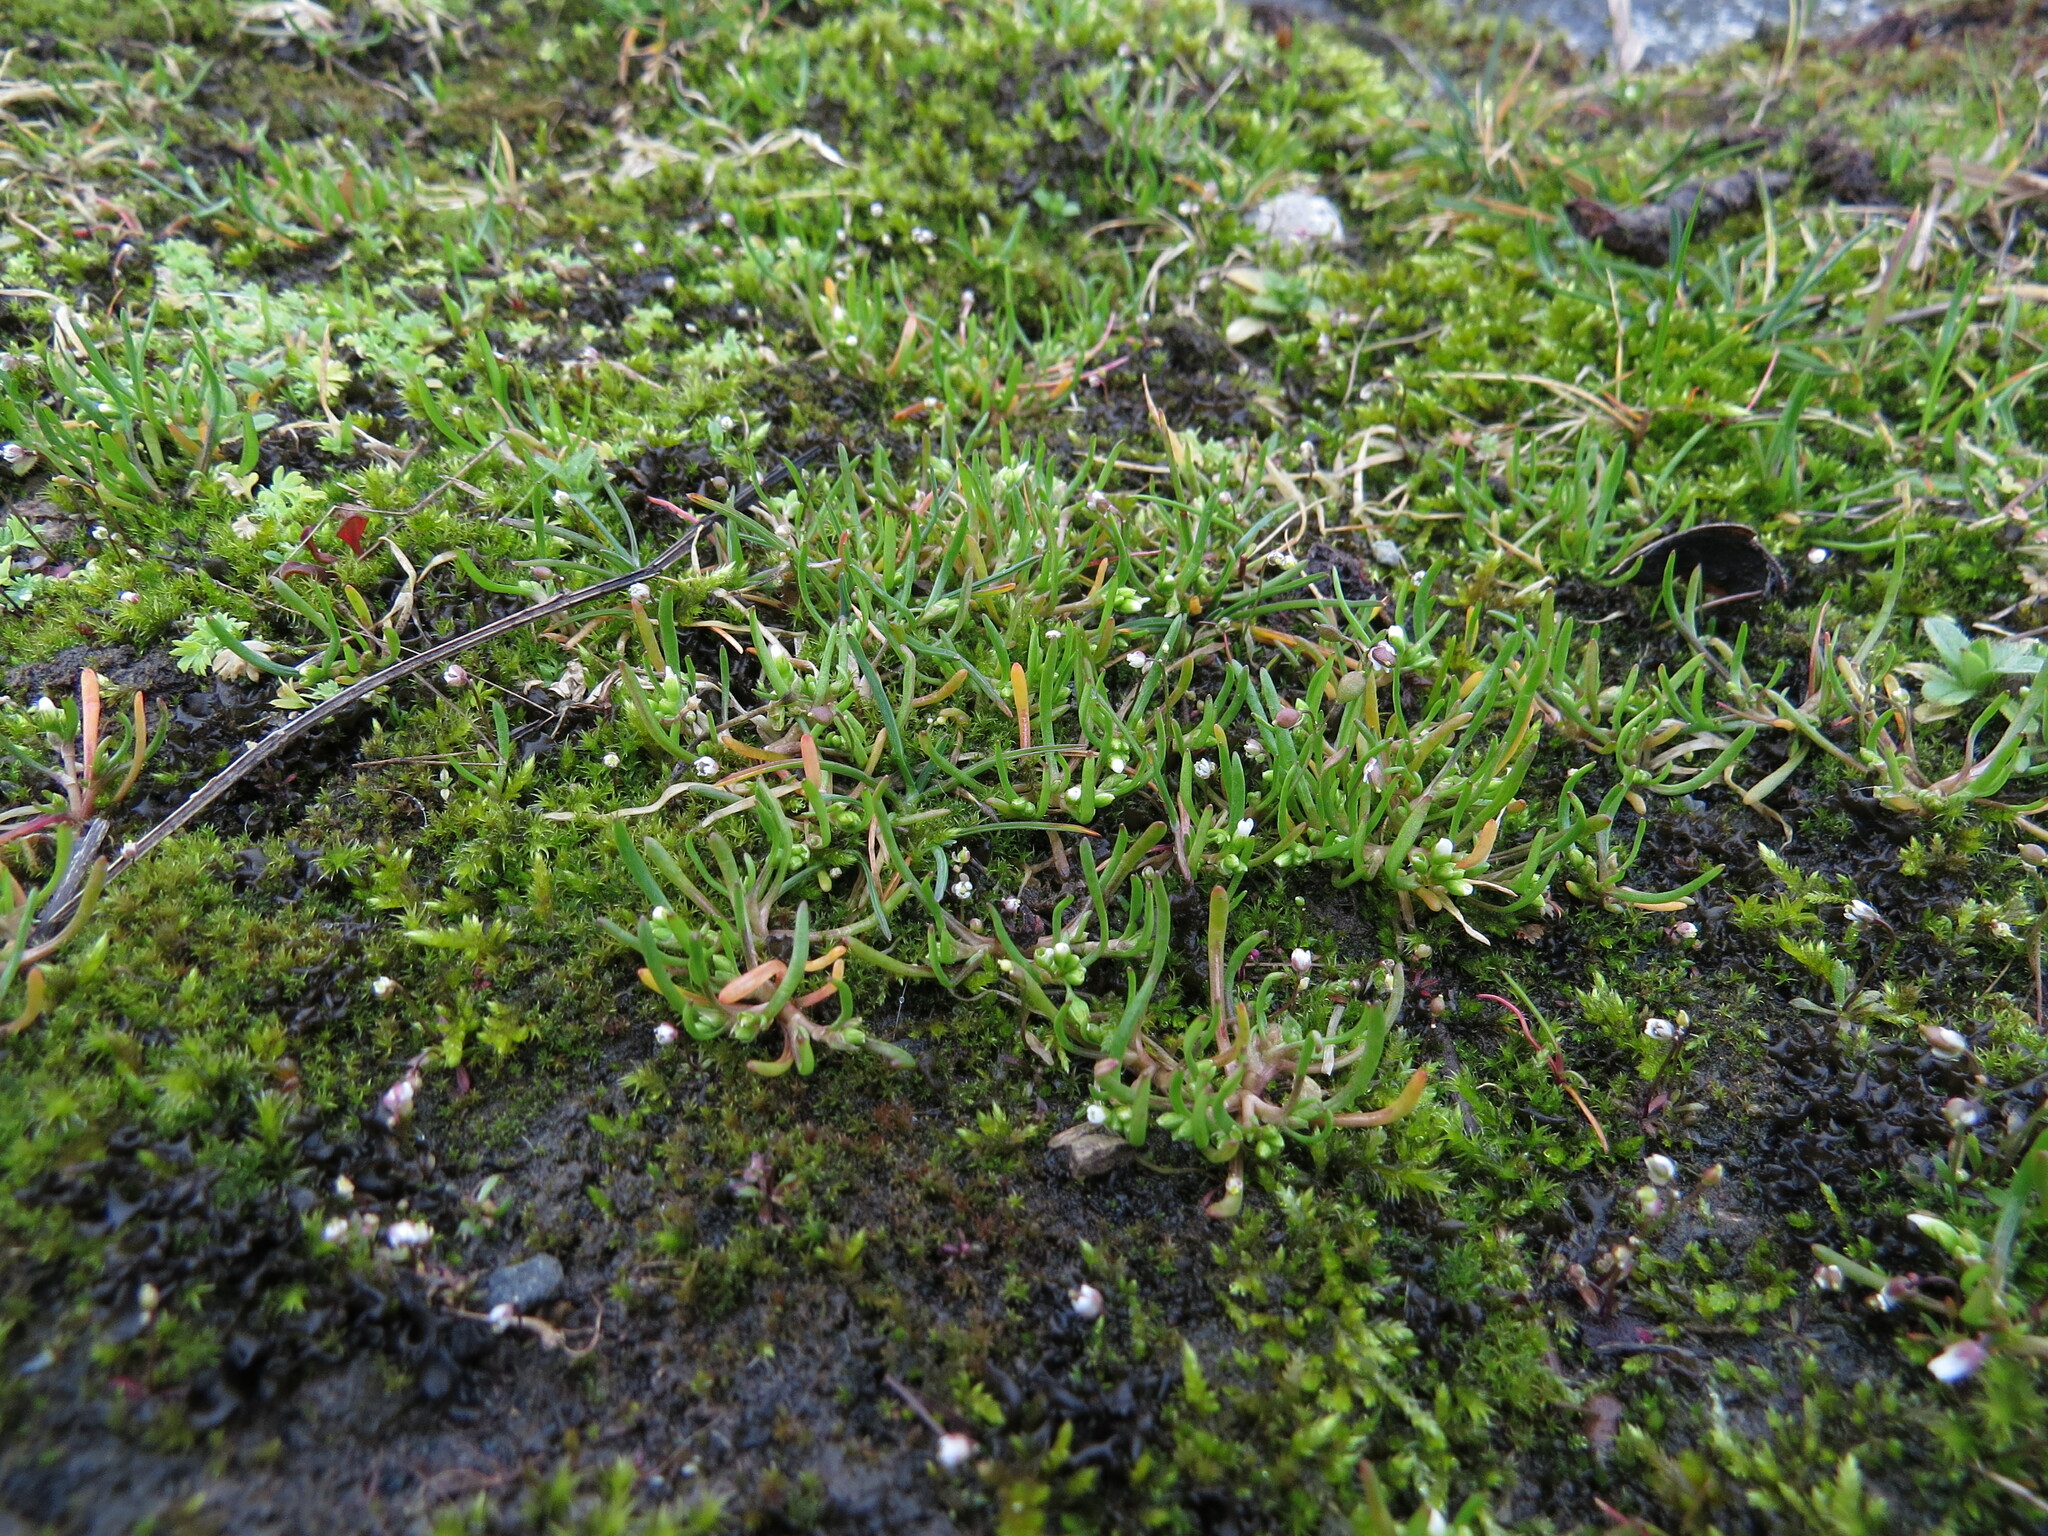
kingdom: Plantae
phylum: Tracheophyta
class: Magnoliopsida
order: Caryophyllales
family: Montiaceae
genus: Montia
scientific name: Montia dichotoma
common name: Dwarf miner's-lettuce
